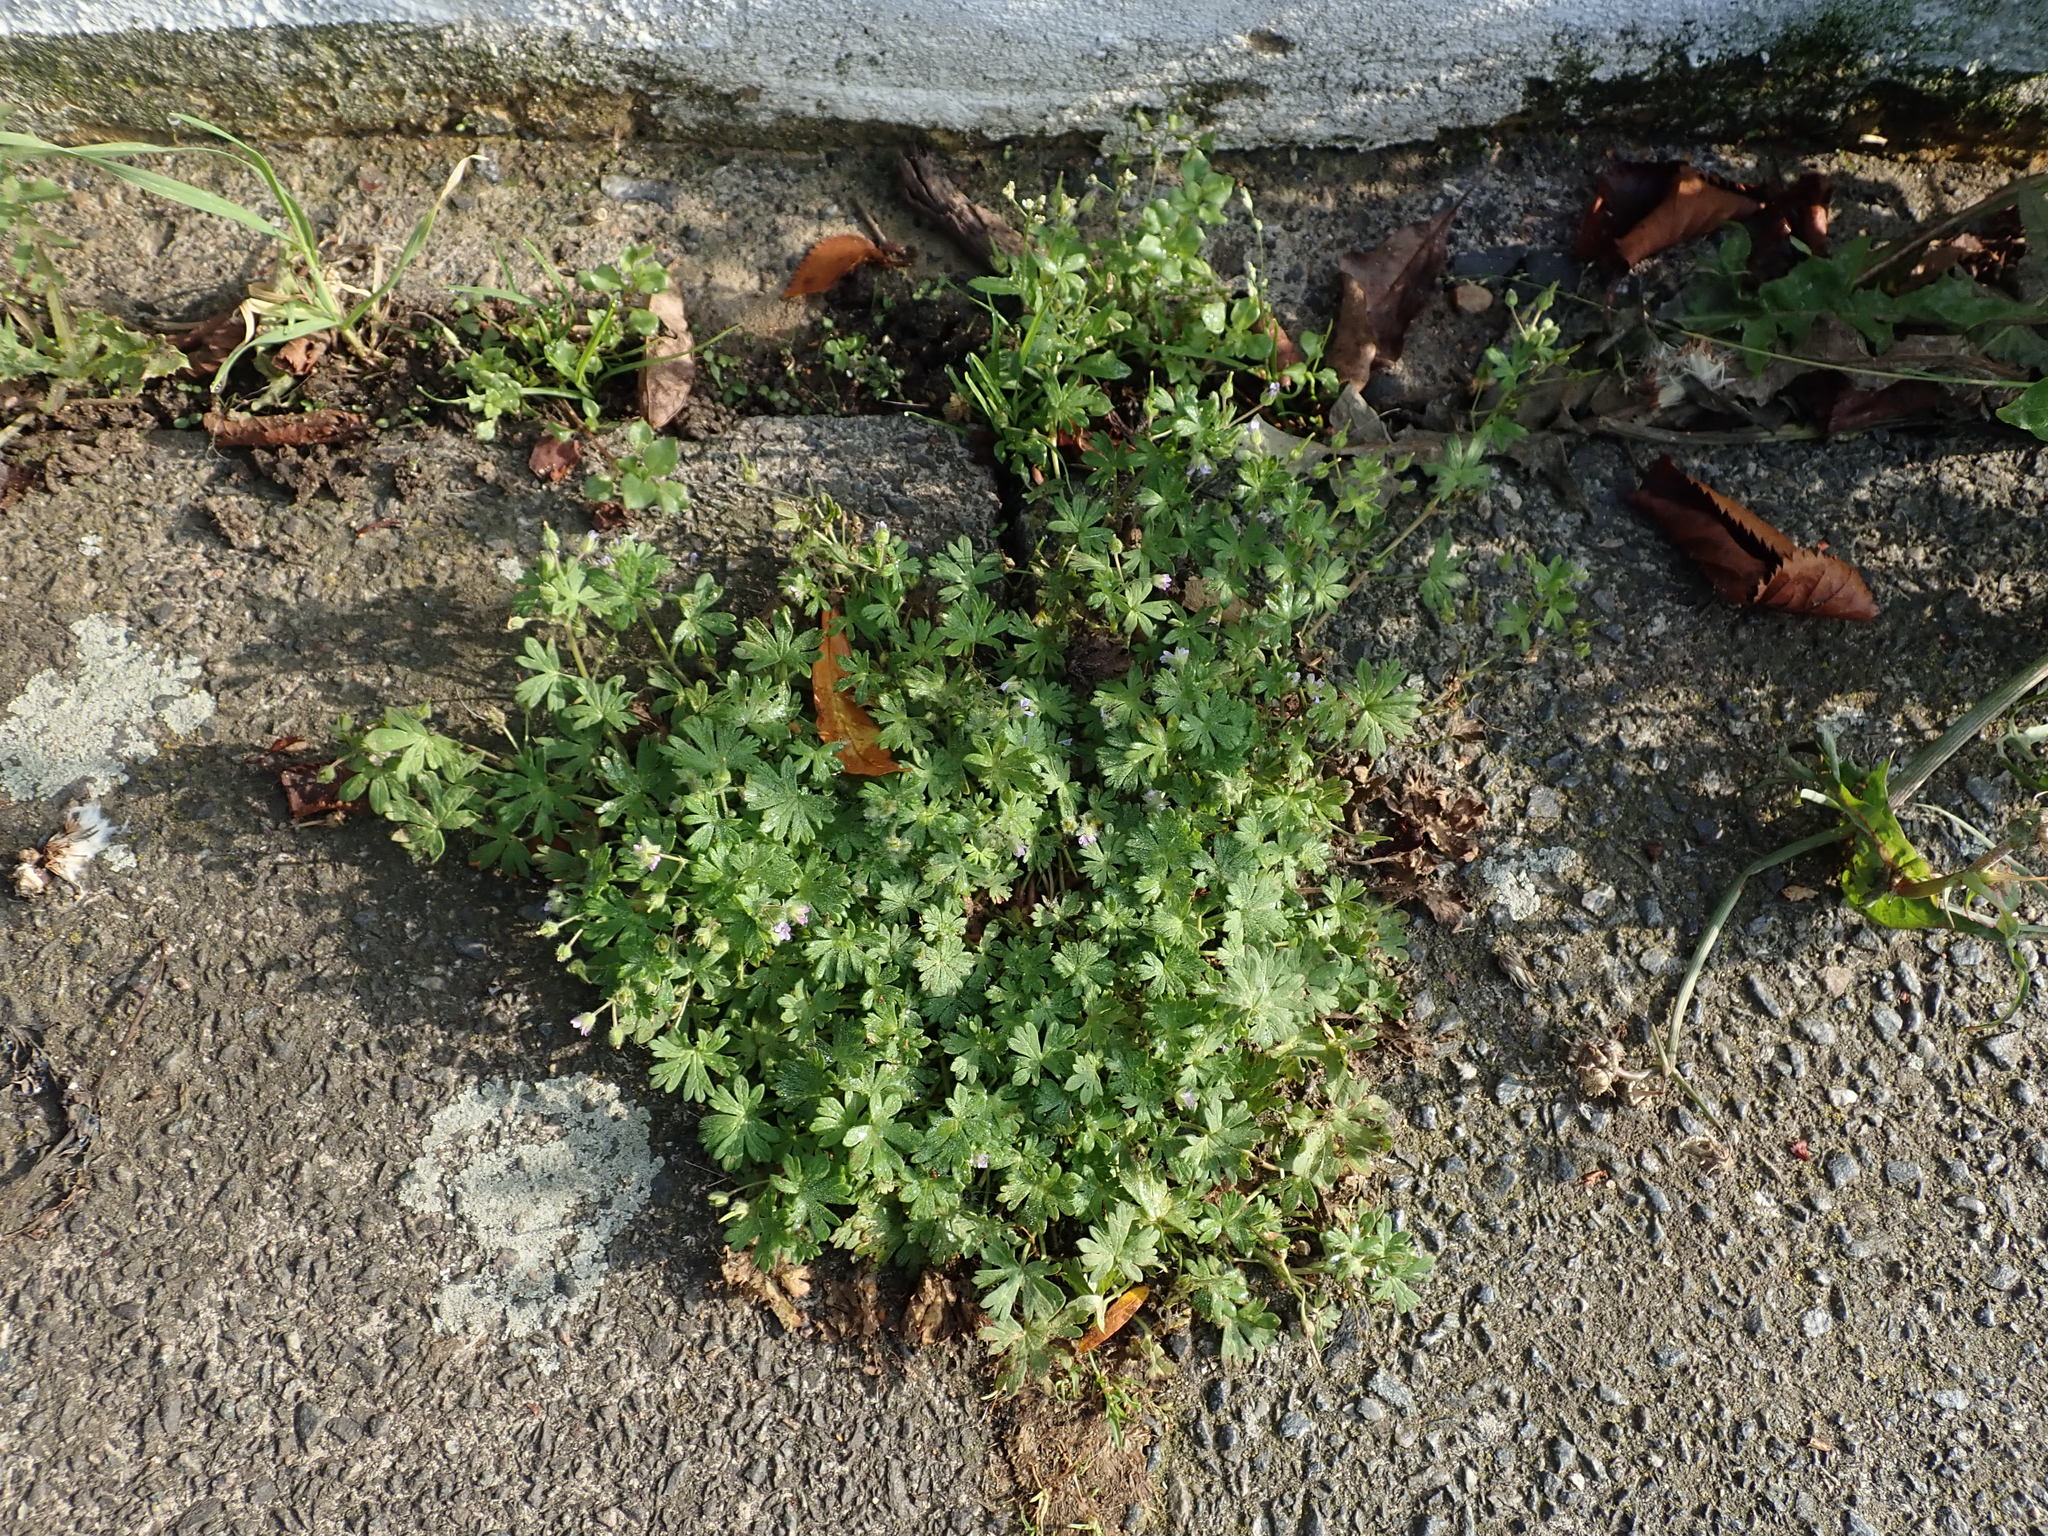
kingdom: Plantae
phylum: Tracheophyta
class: Magnoliopsida
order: Geraniales
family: Geraniaceae
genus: Geranium
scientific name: Geranium pusillum
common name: Small geranium
